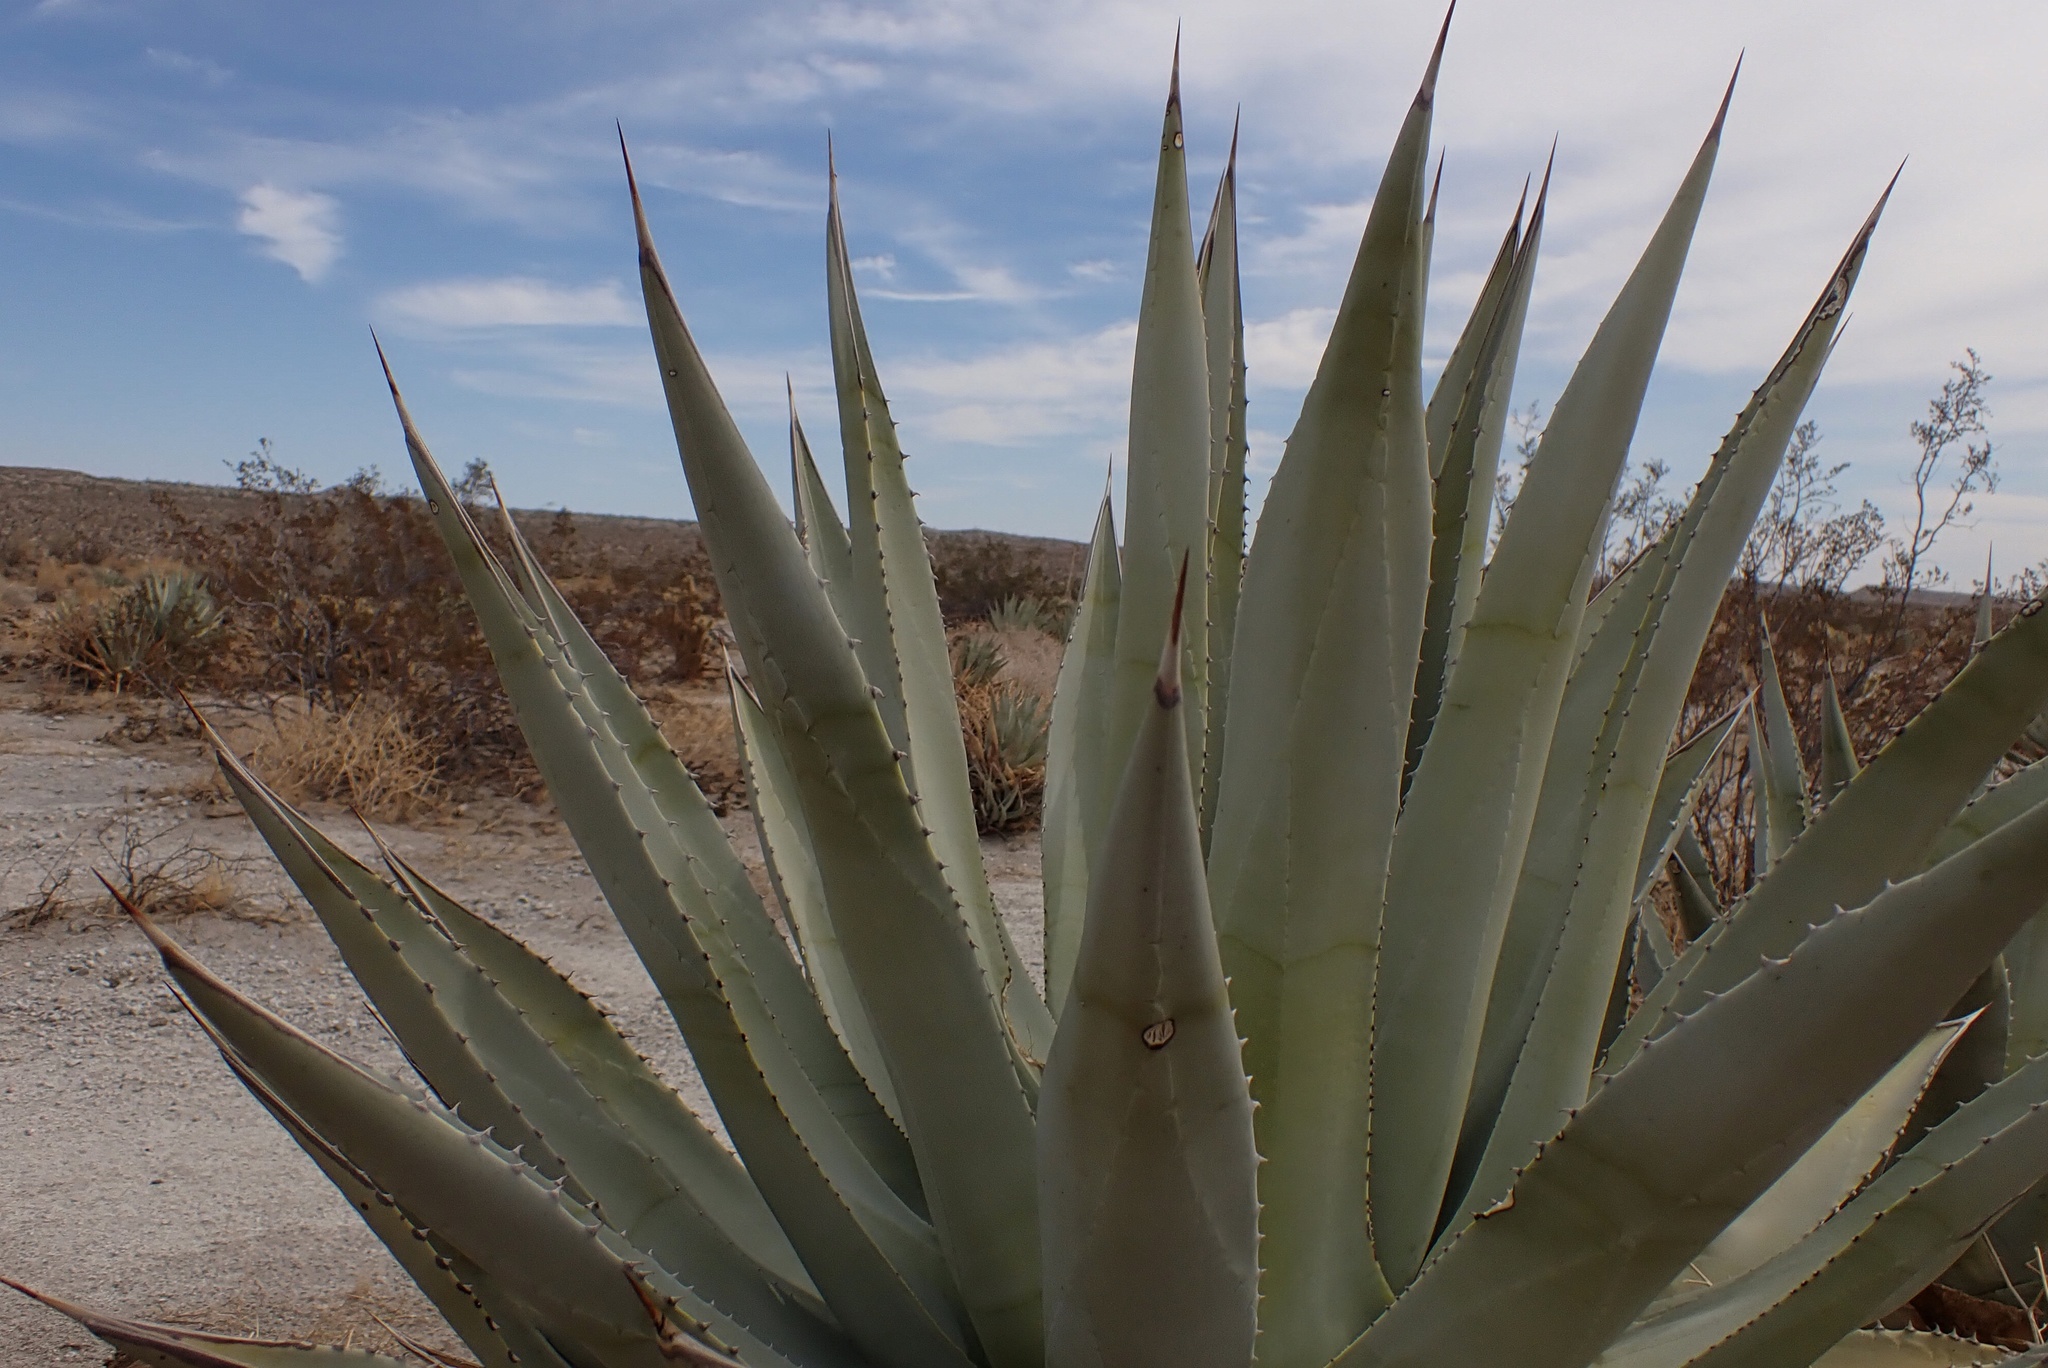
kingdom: Plantae
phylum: Tracheophyta
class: Liliopsida
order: Asparagales
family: Asparagaceae
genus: Agave
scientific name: Agave deserti
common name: Desert agave
